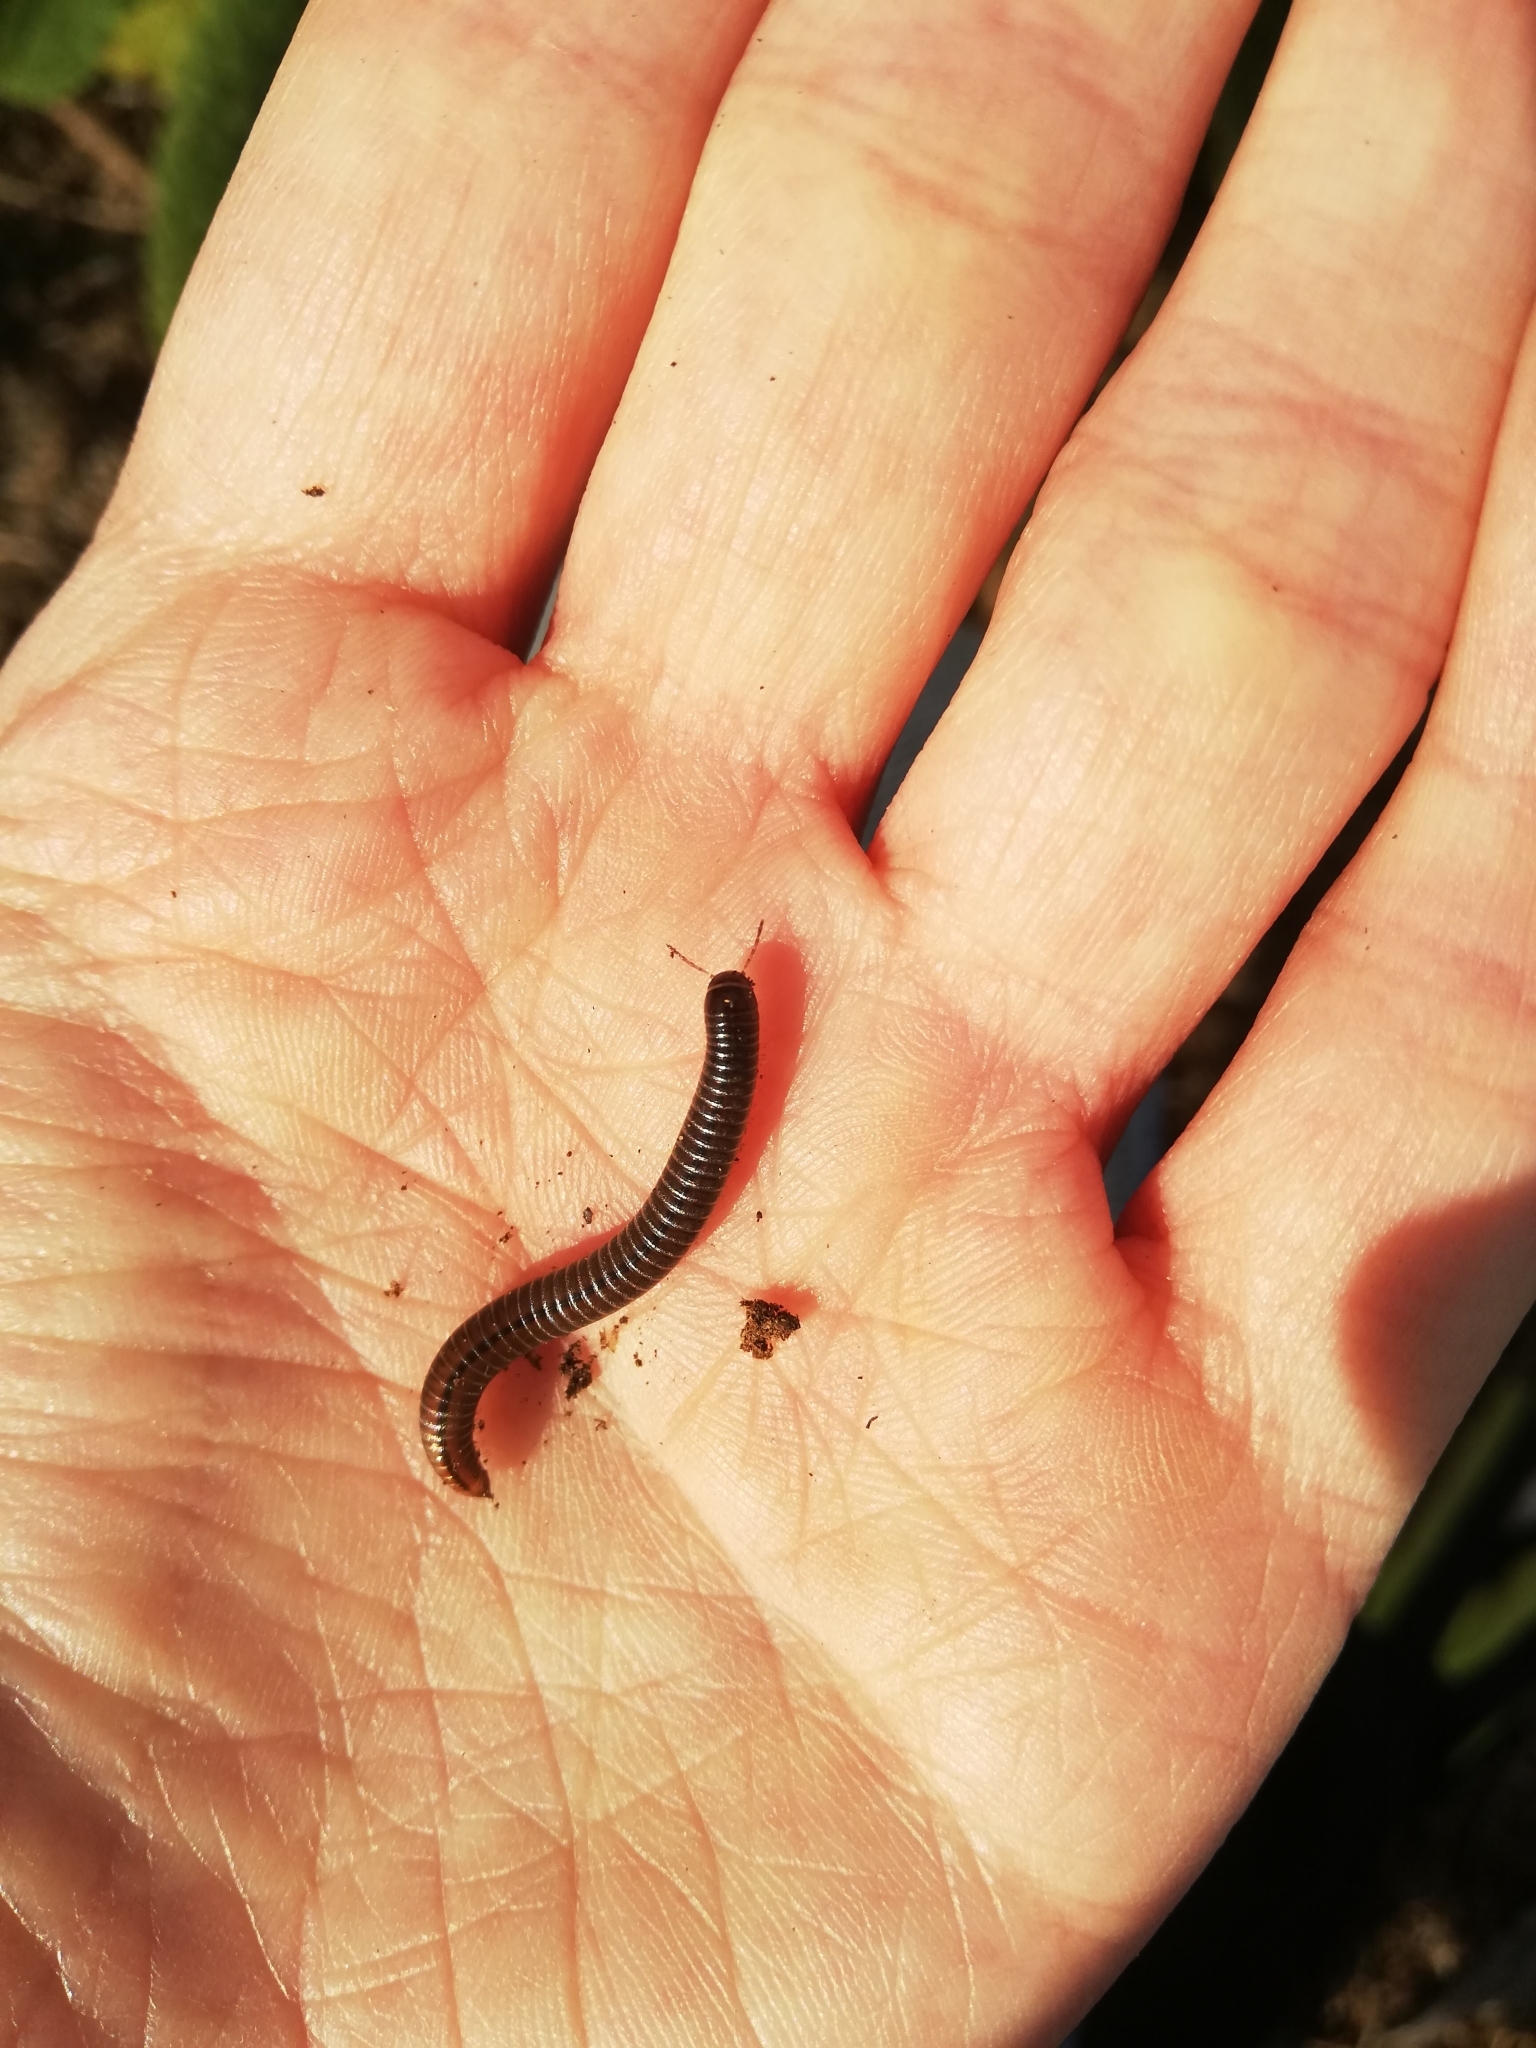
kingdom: Animalia
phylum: Arthropoda
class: Diplopoda
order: Julida
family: Julidae
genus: Megaphyllum
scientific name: Megaphyllum projectum
